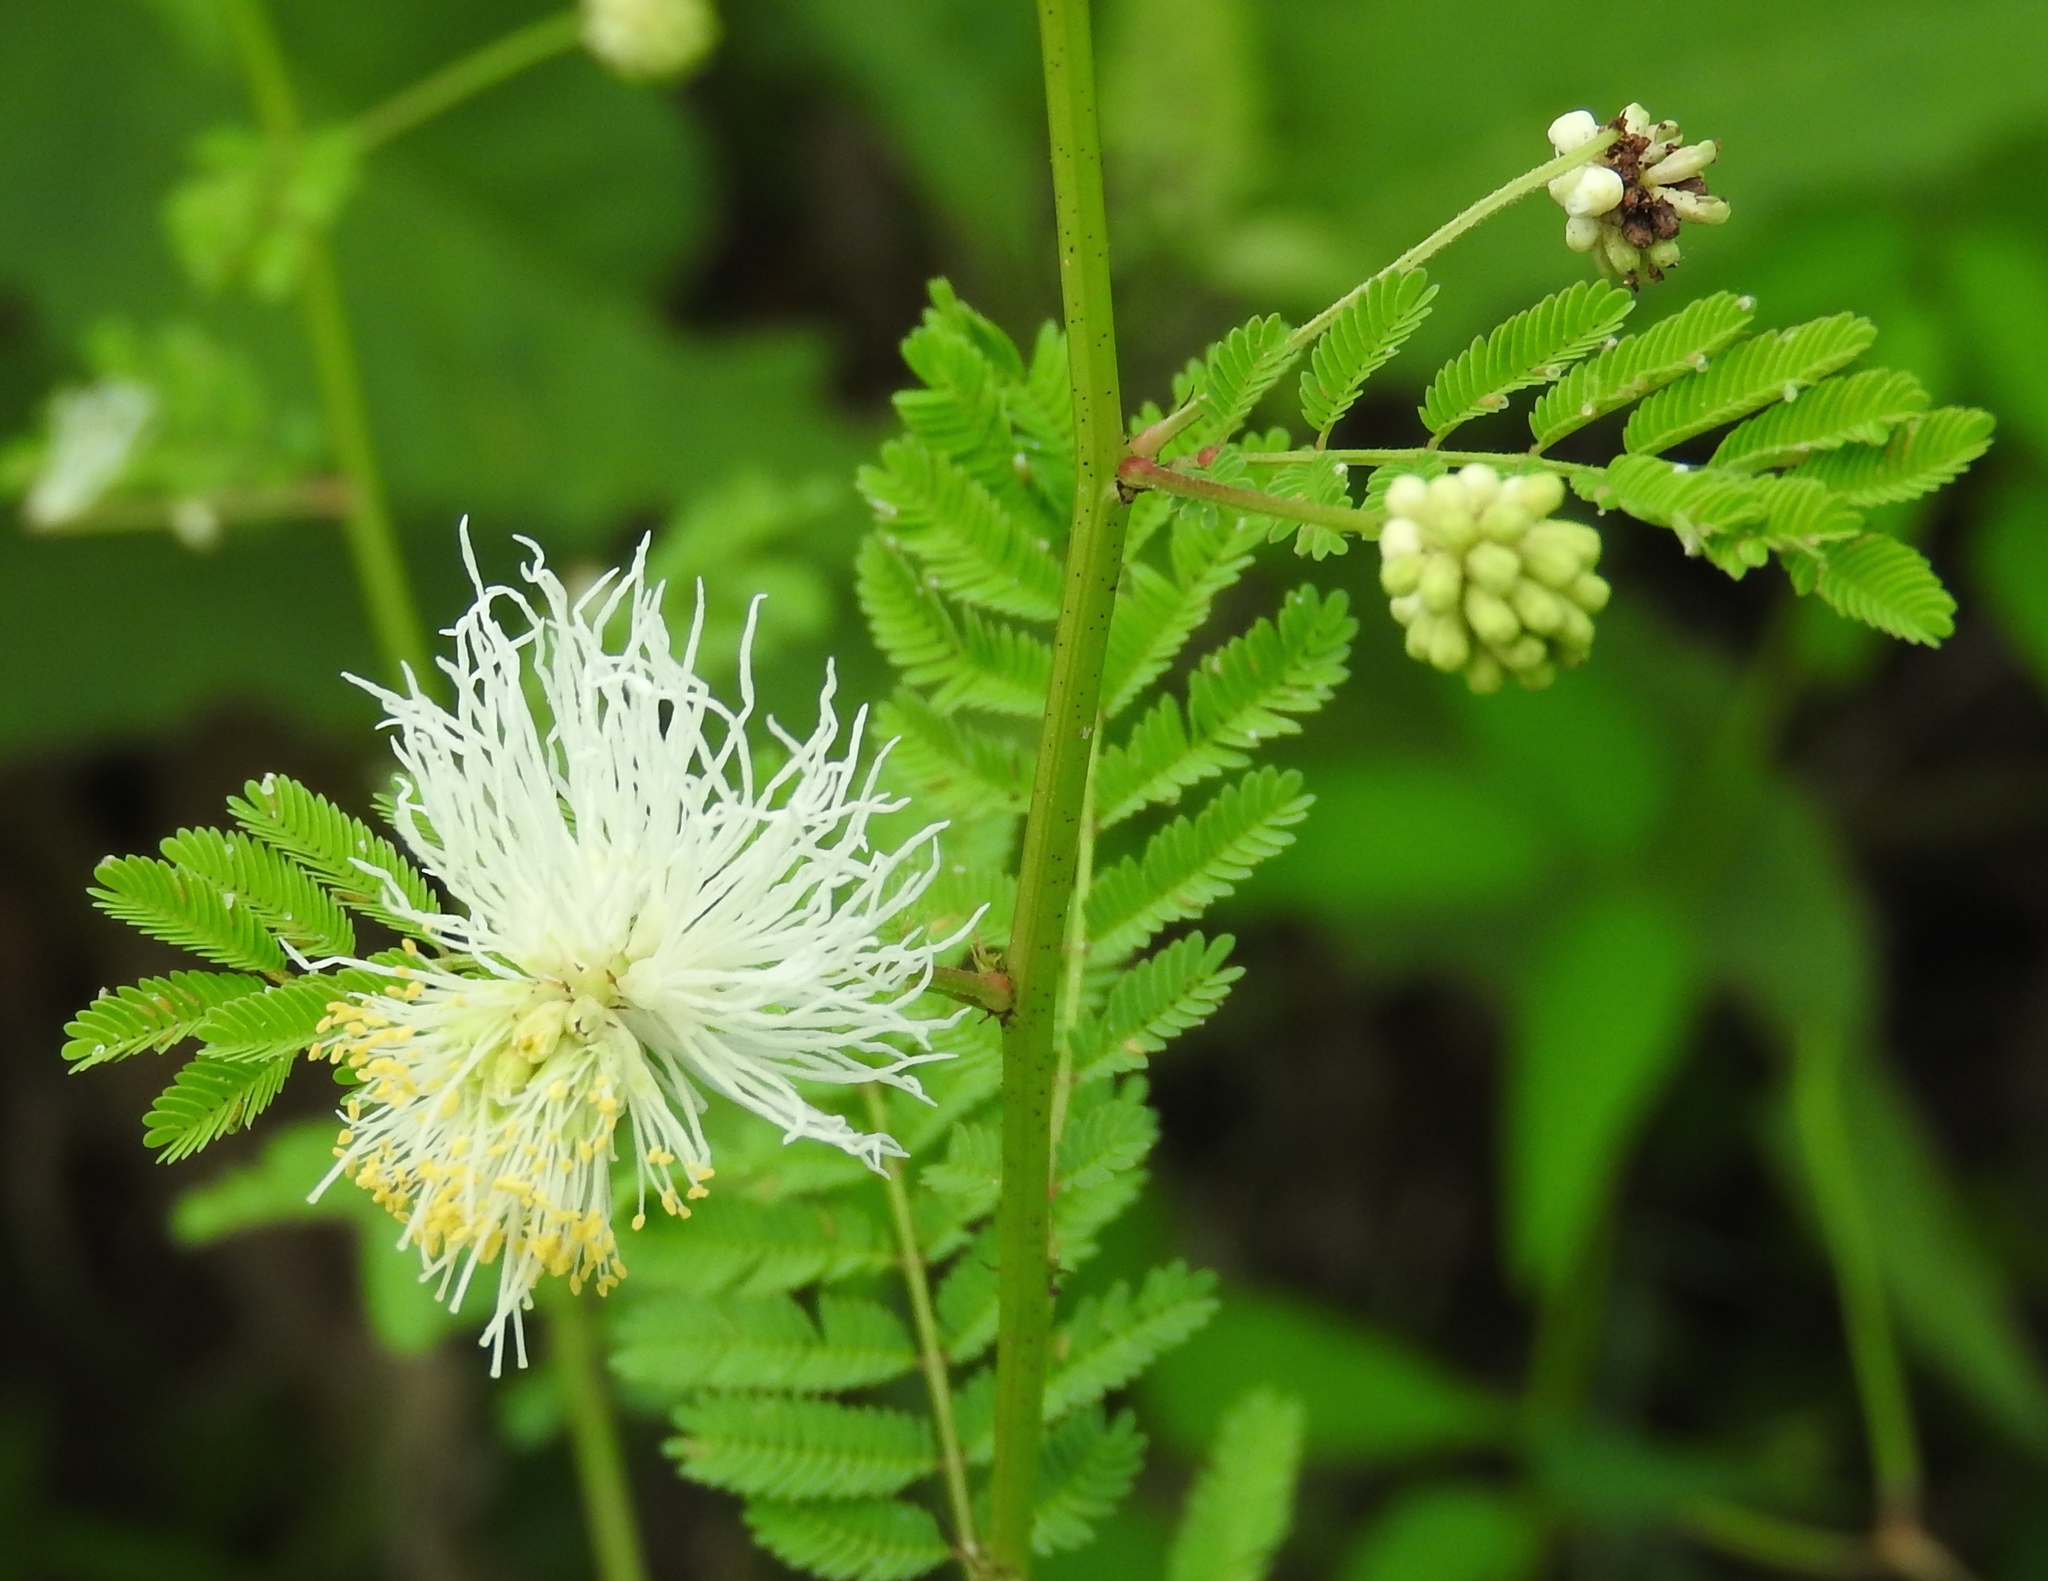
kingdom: Plantae
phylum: Tracheophyta
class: Magnoliopsida
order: Fabales
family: Fabaceae
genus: Desmanthus
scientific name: Desmanthus bicornutus
